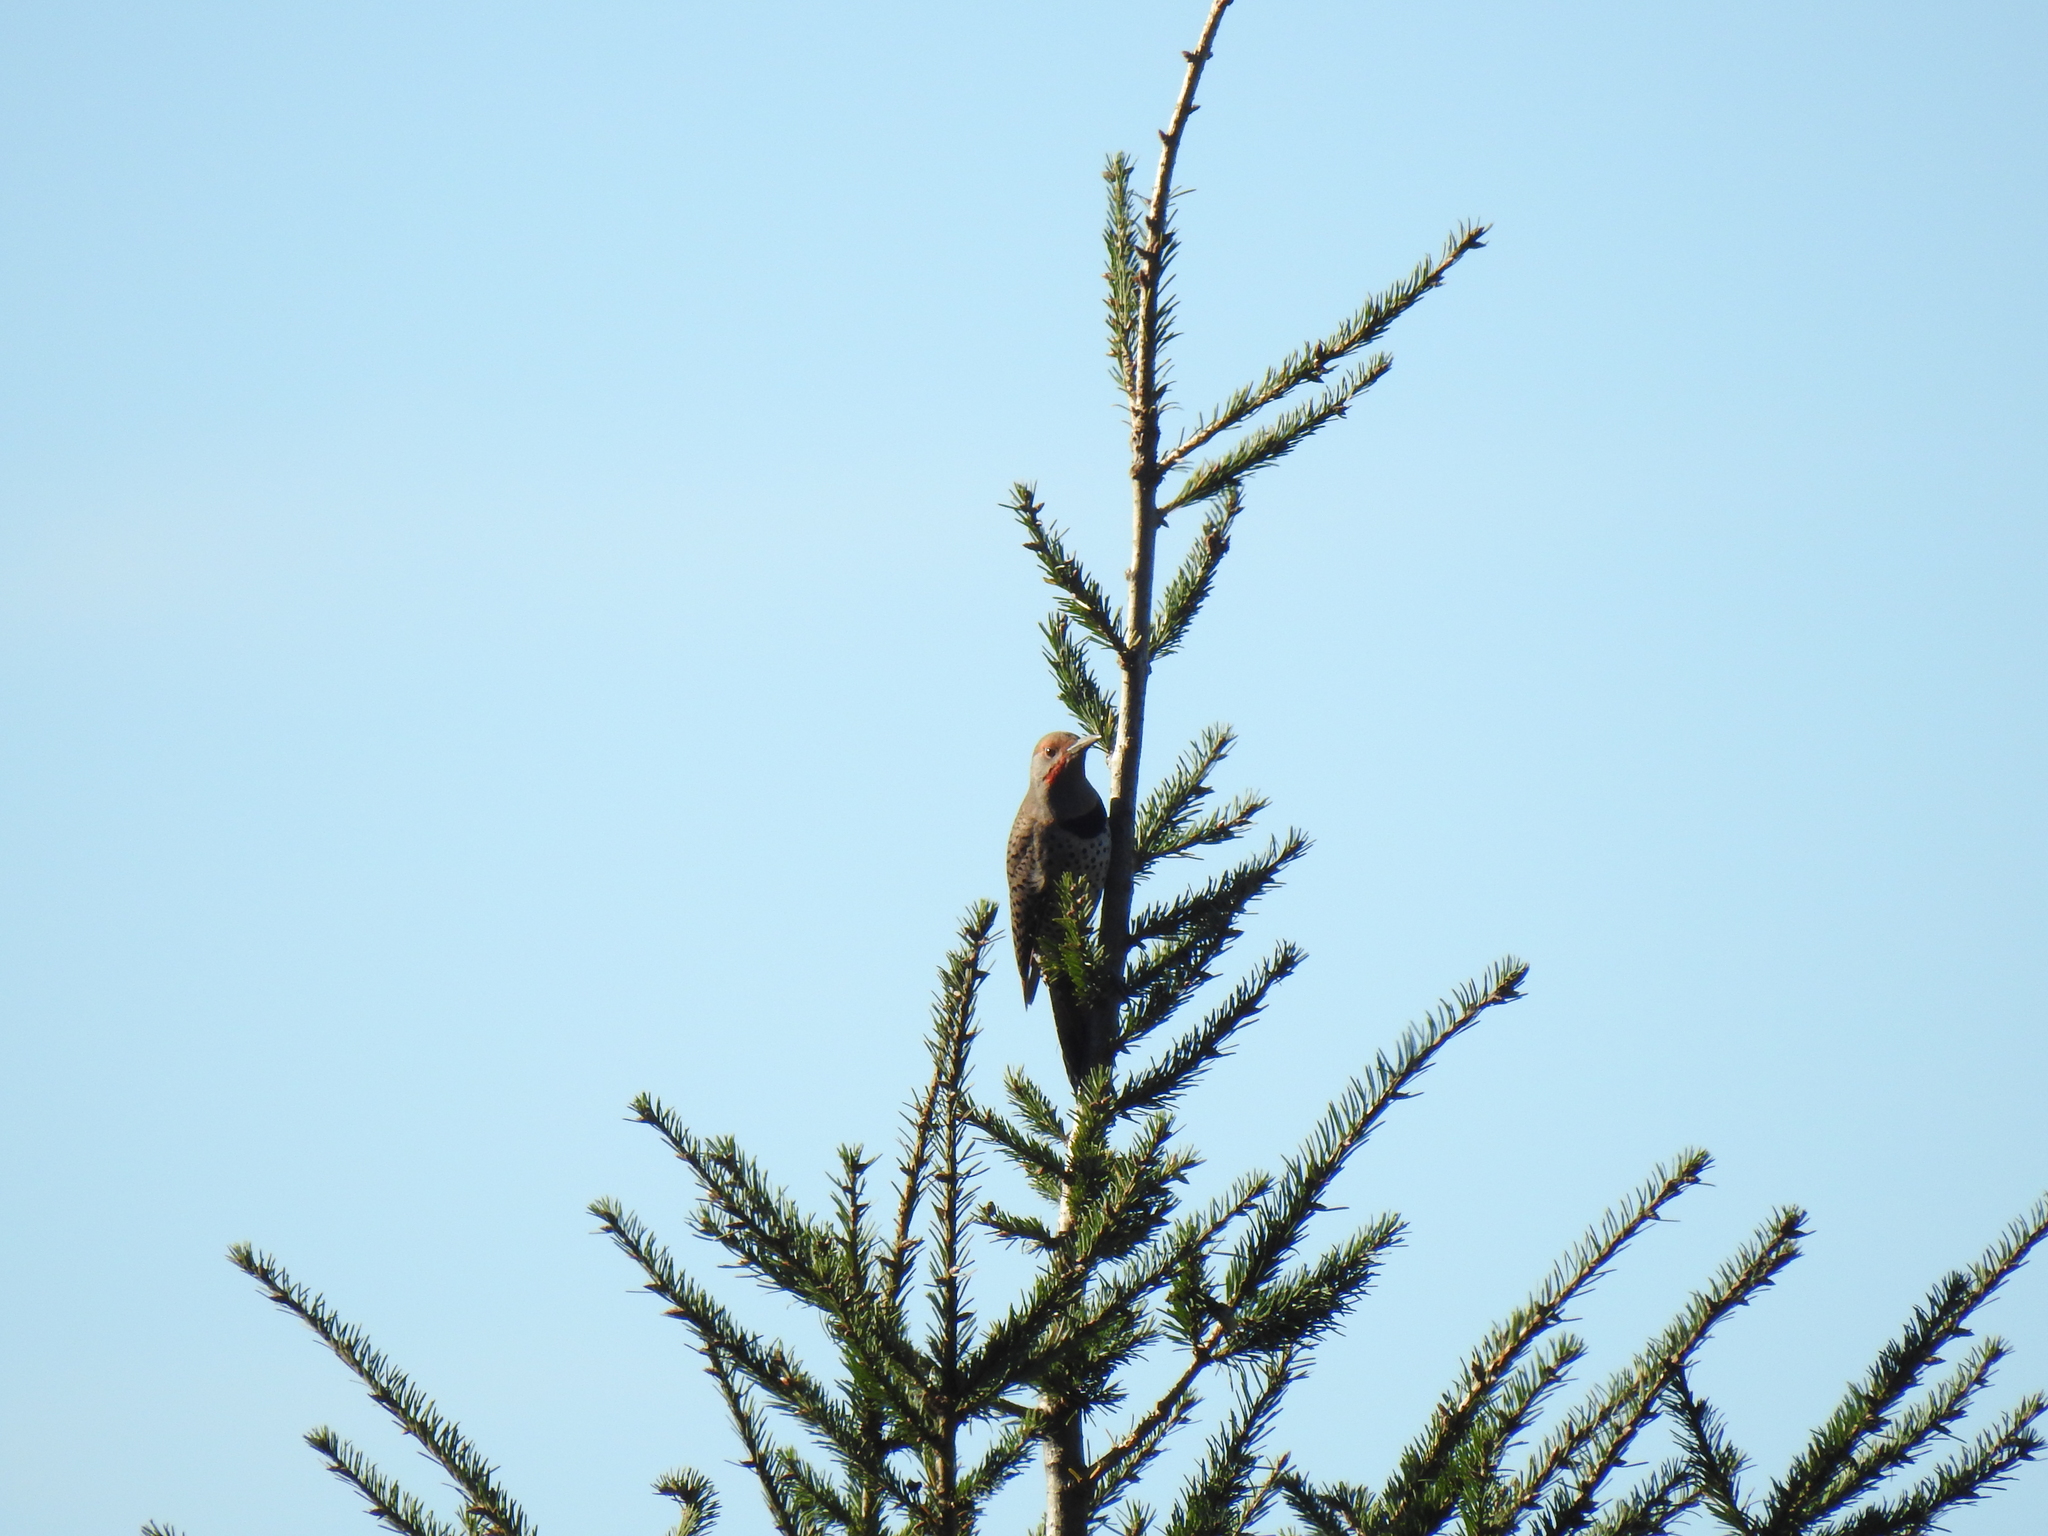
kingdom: Animalia
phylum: Chordata
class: Aves
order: Piciformes
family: Picidae
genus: Colaptes
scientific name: Colaptes auratus
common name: Northern flicker
